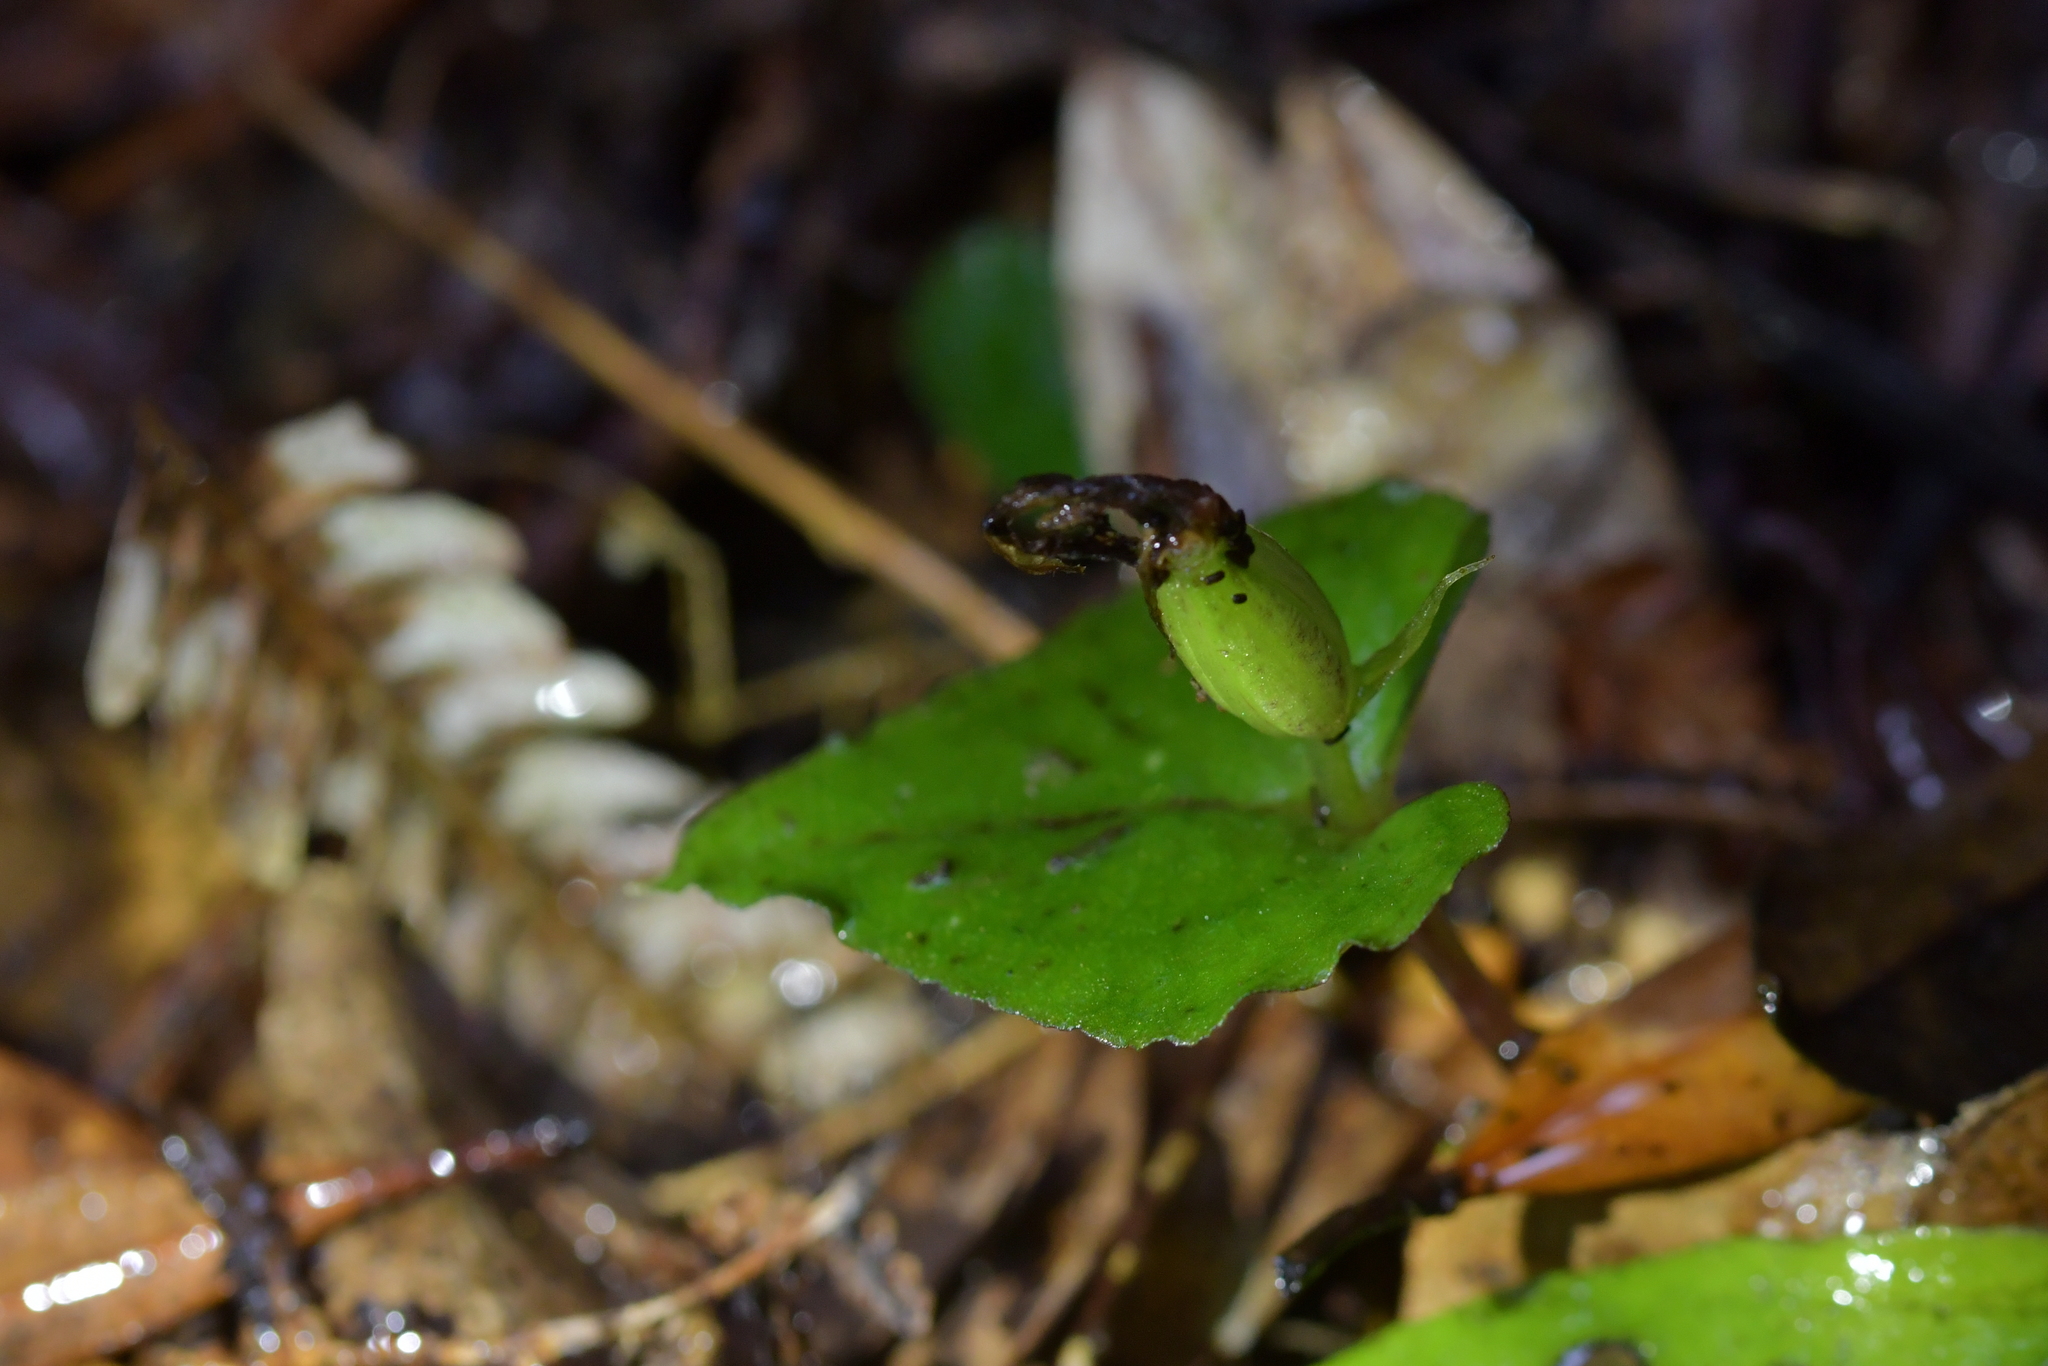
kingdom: Plantae
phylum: Tracheophyta
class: Liliopsida
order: Asparagales
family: Orchidaceae
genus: Corybas
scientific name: Corybas acuminatus
